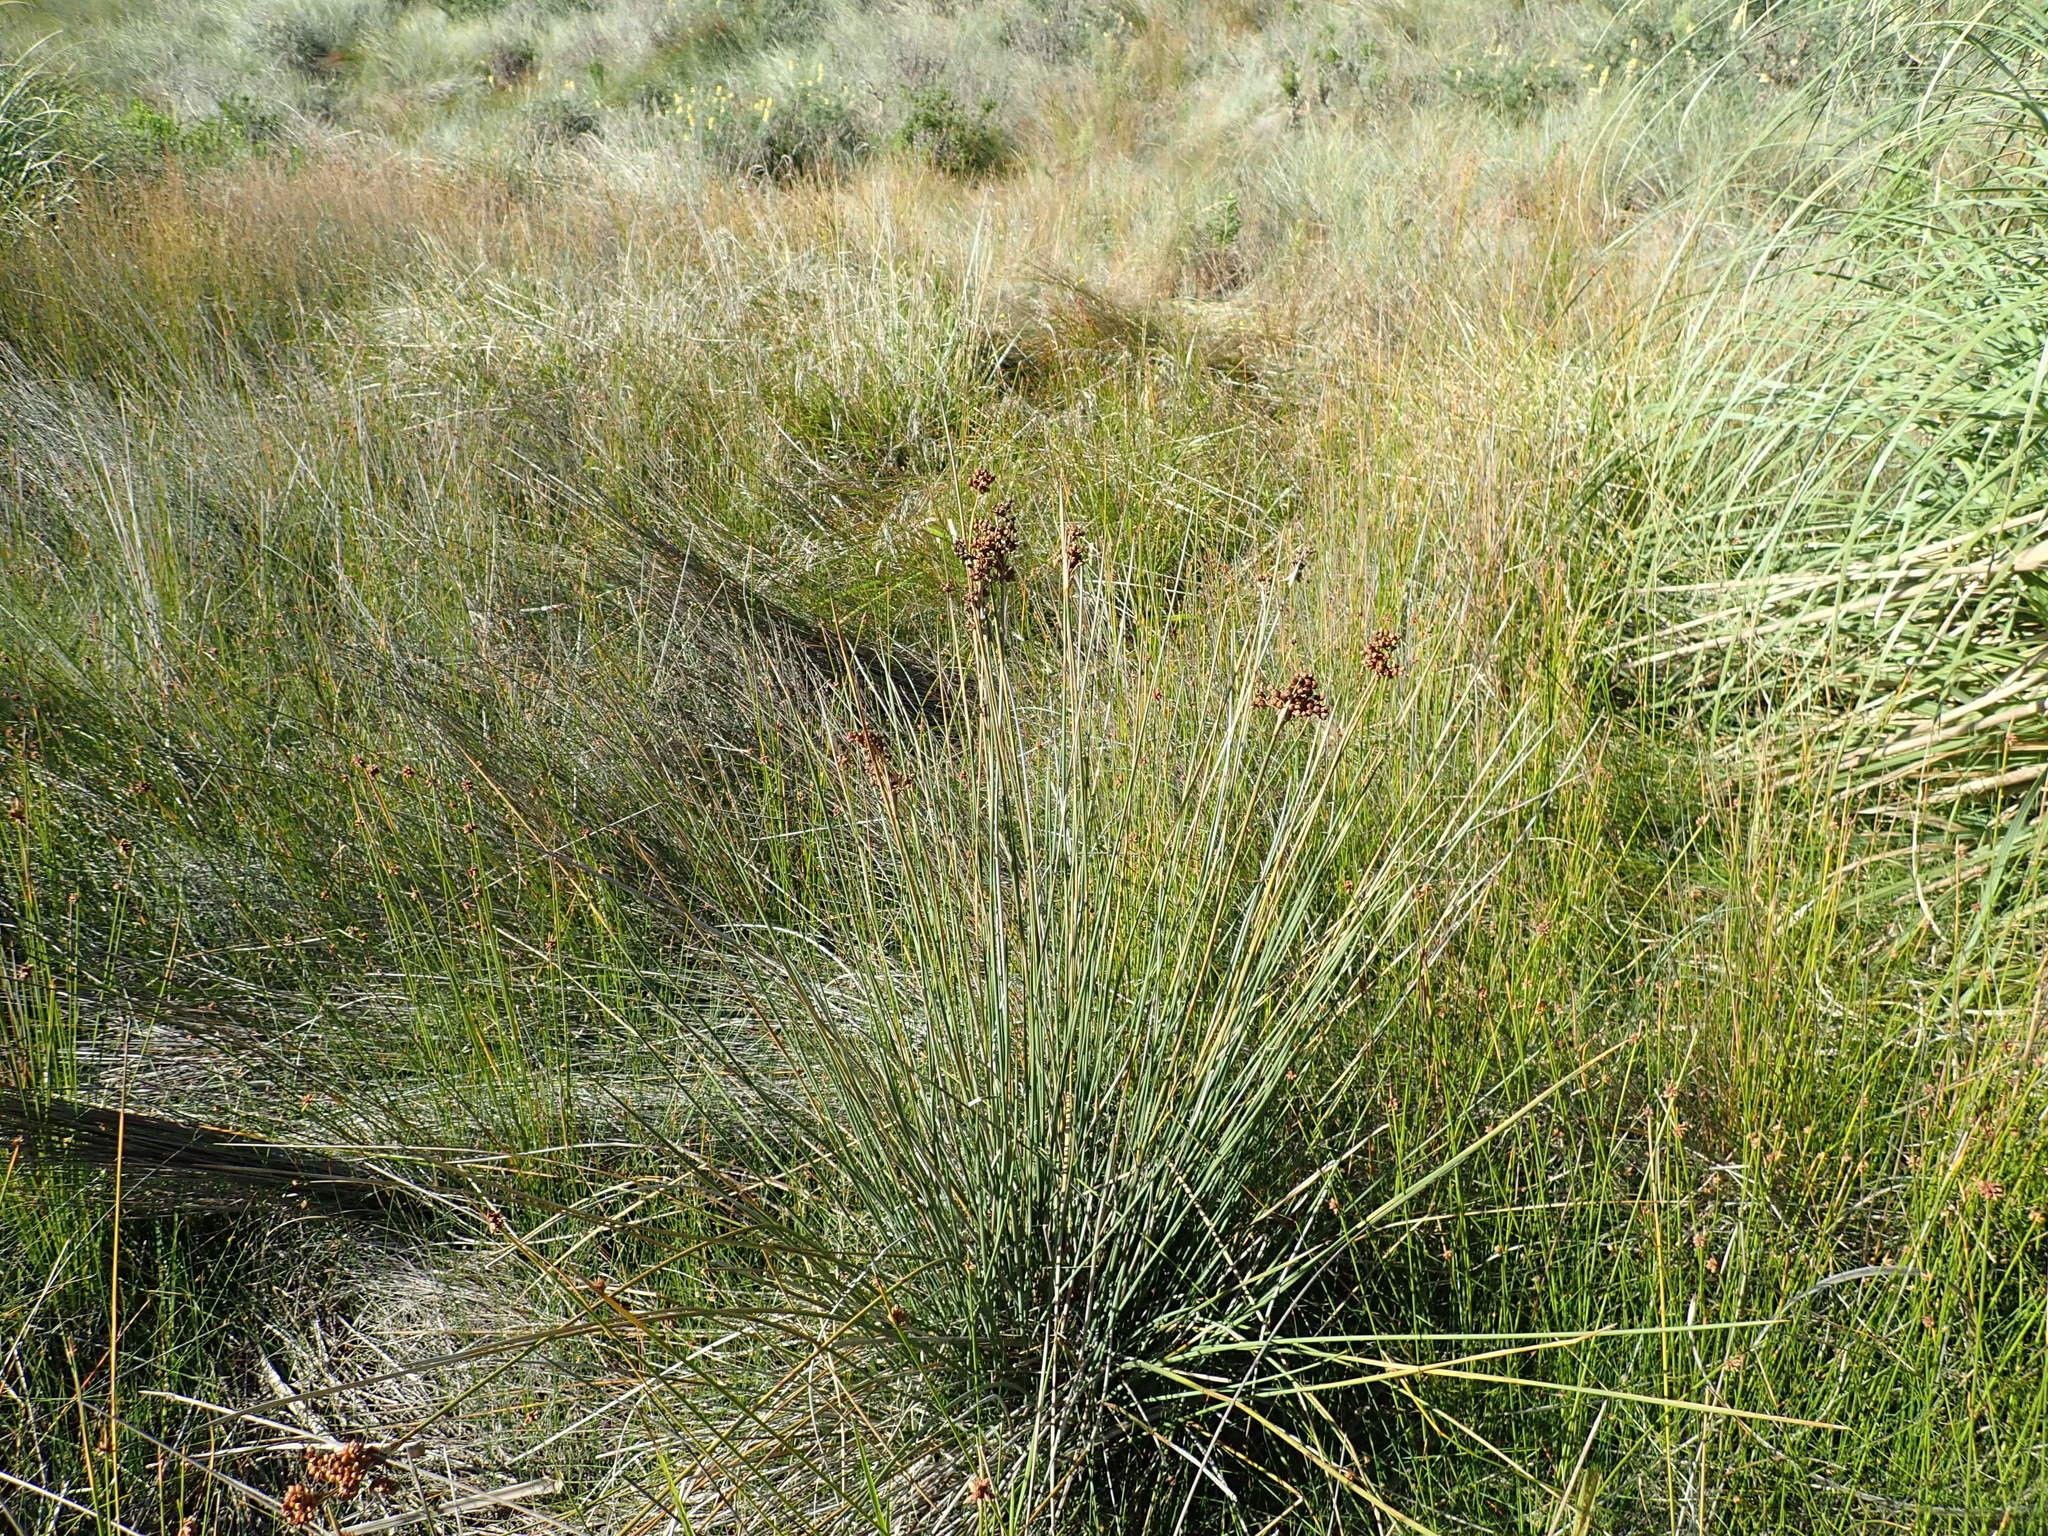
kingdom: Plantae
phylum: Tracheophyta
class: Liliopsida
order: Poales
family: Juncaceae
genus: Juncus
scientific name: Juncus acutus
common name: Sharp rush
